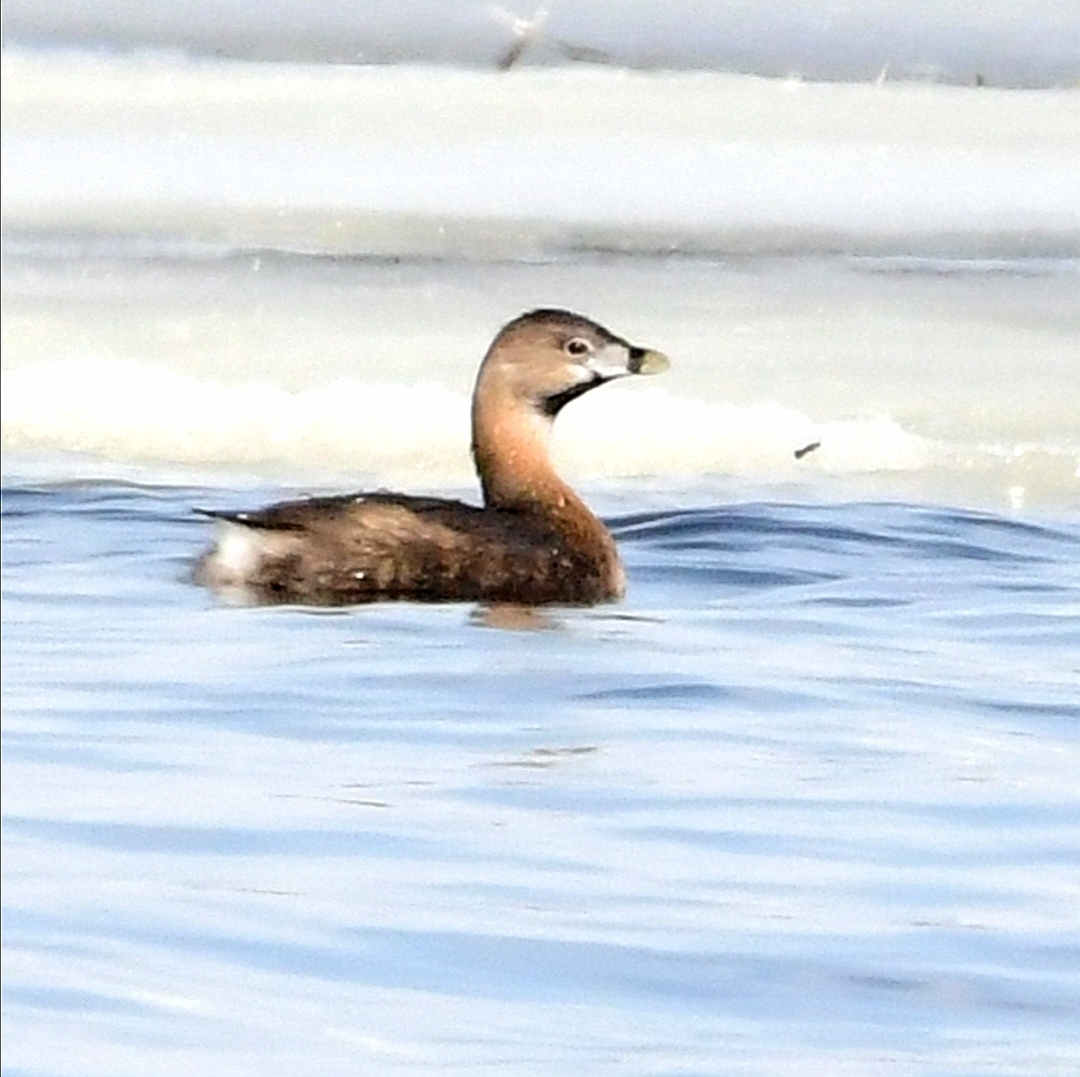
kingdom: Animalia
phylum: Chordata
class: Aves
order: Podicipediformes
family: Podicipedidae
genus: Podilymbus
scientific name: Podilymbus podiceps
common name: Pied-billed grebe
